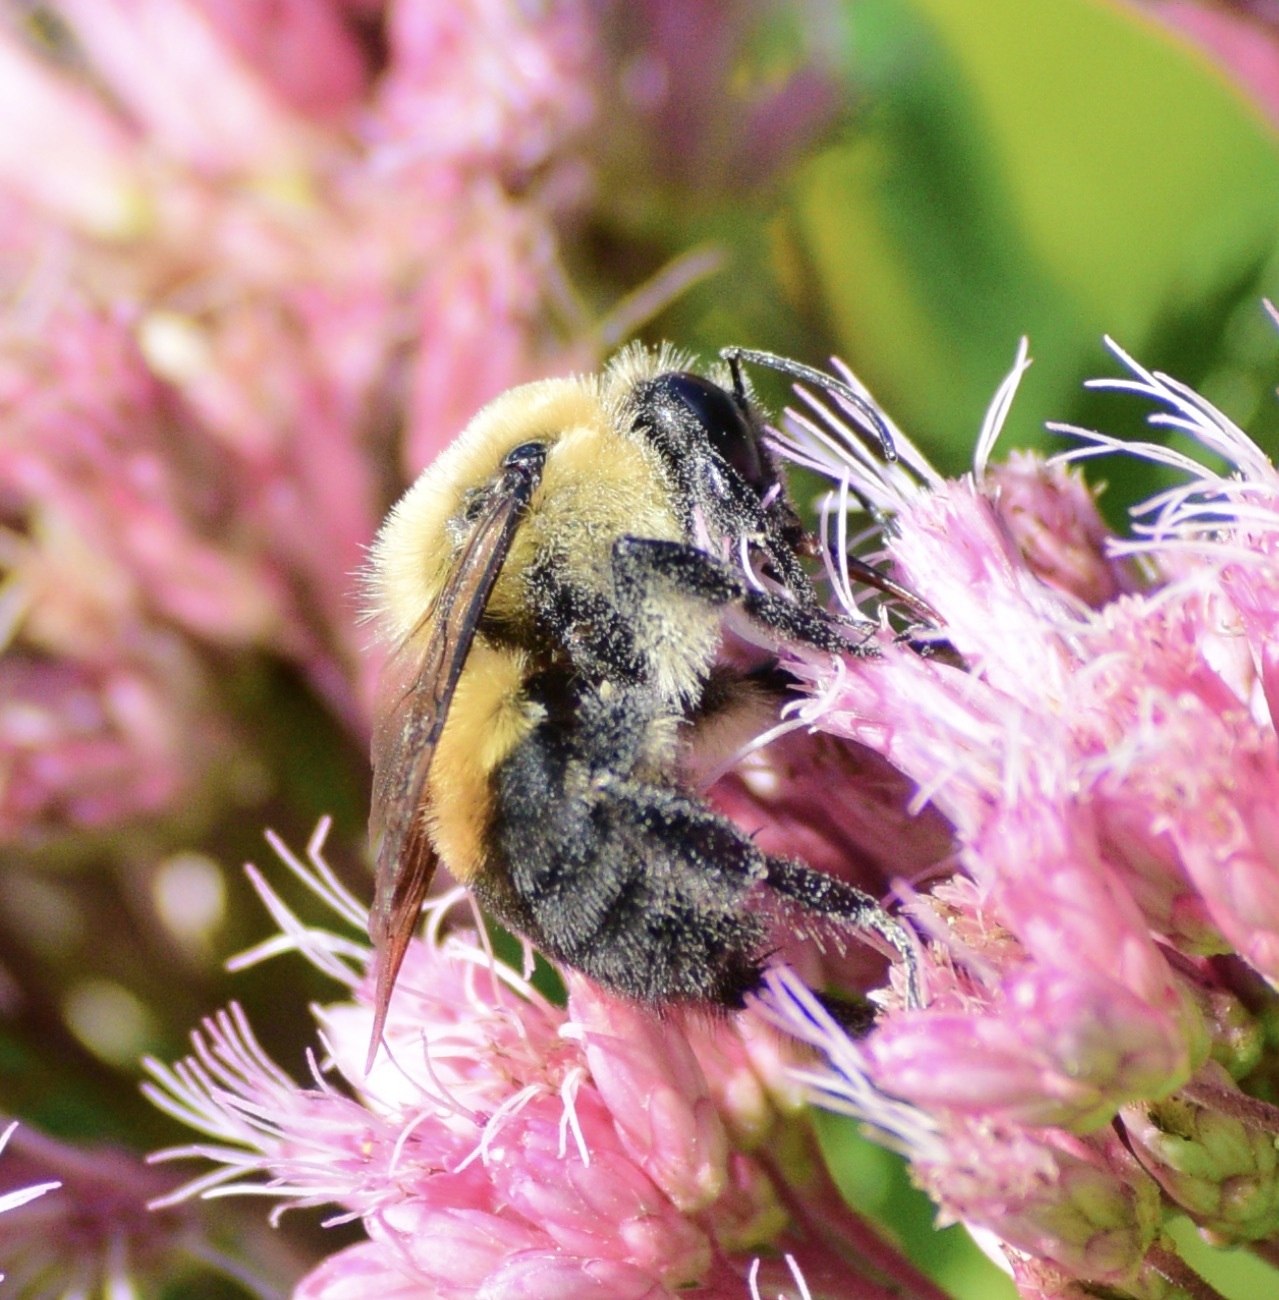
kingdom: Animalia
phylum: Arthropoda
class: Insecta
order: Hymenoptera
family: Apidae
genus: Bombus
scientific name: Bombus griseocollis
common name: Brown-belted bumble bee
